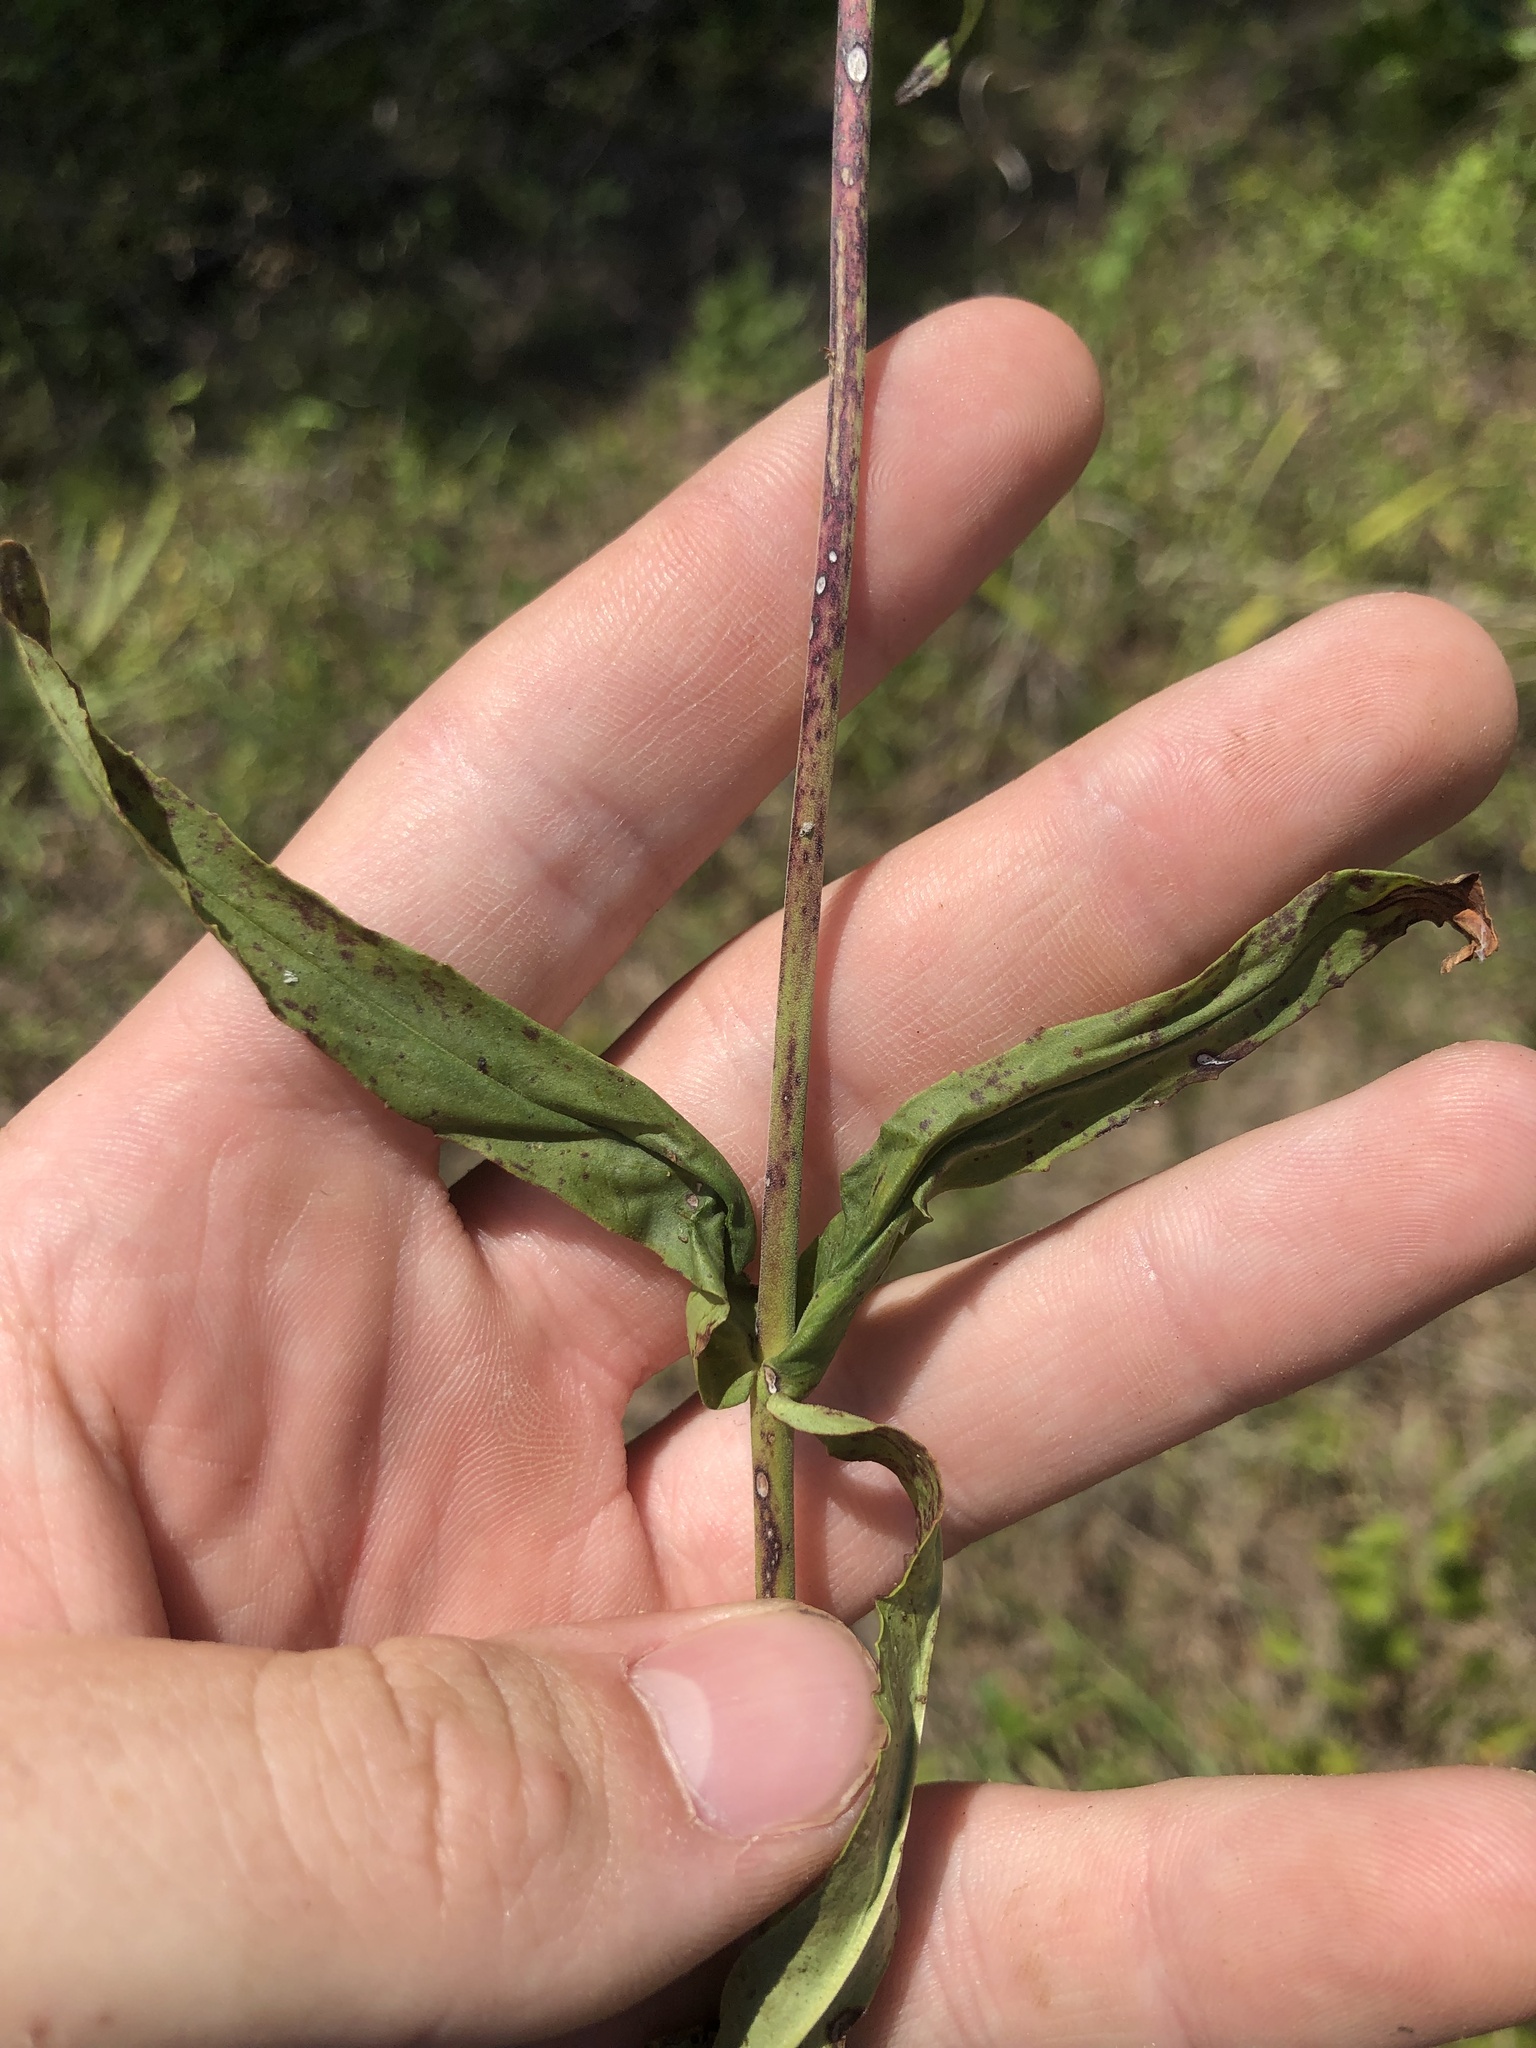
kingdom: Plantae
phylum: Tracheophyta
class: Magnoliopsida
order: Lamiales
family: Plantaginaceae
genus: Penstemon
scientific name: Penstemon laxiflorus
